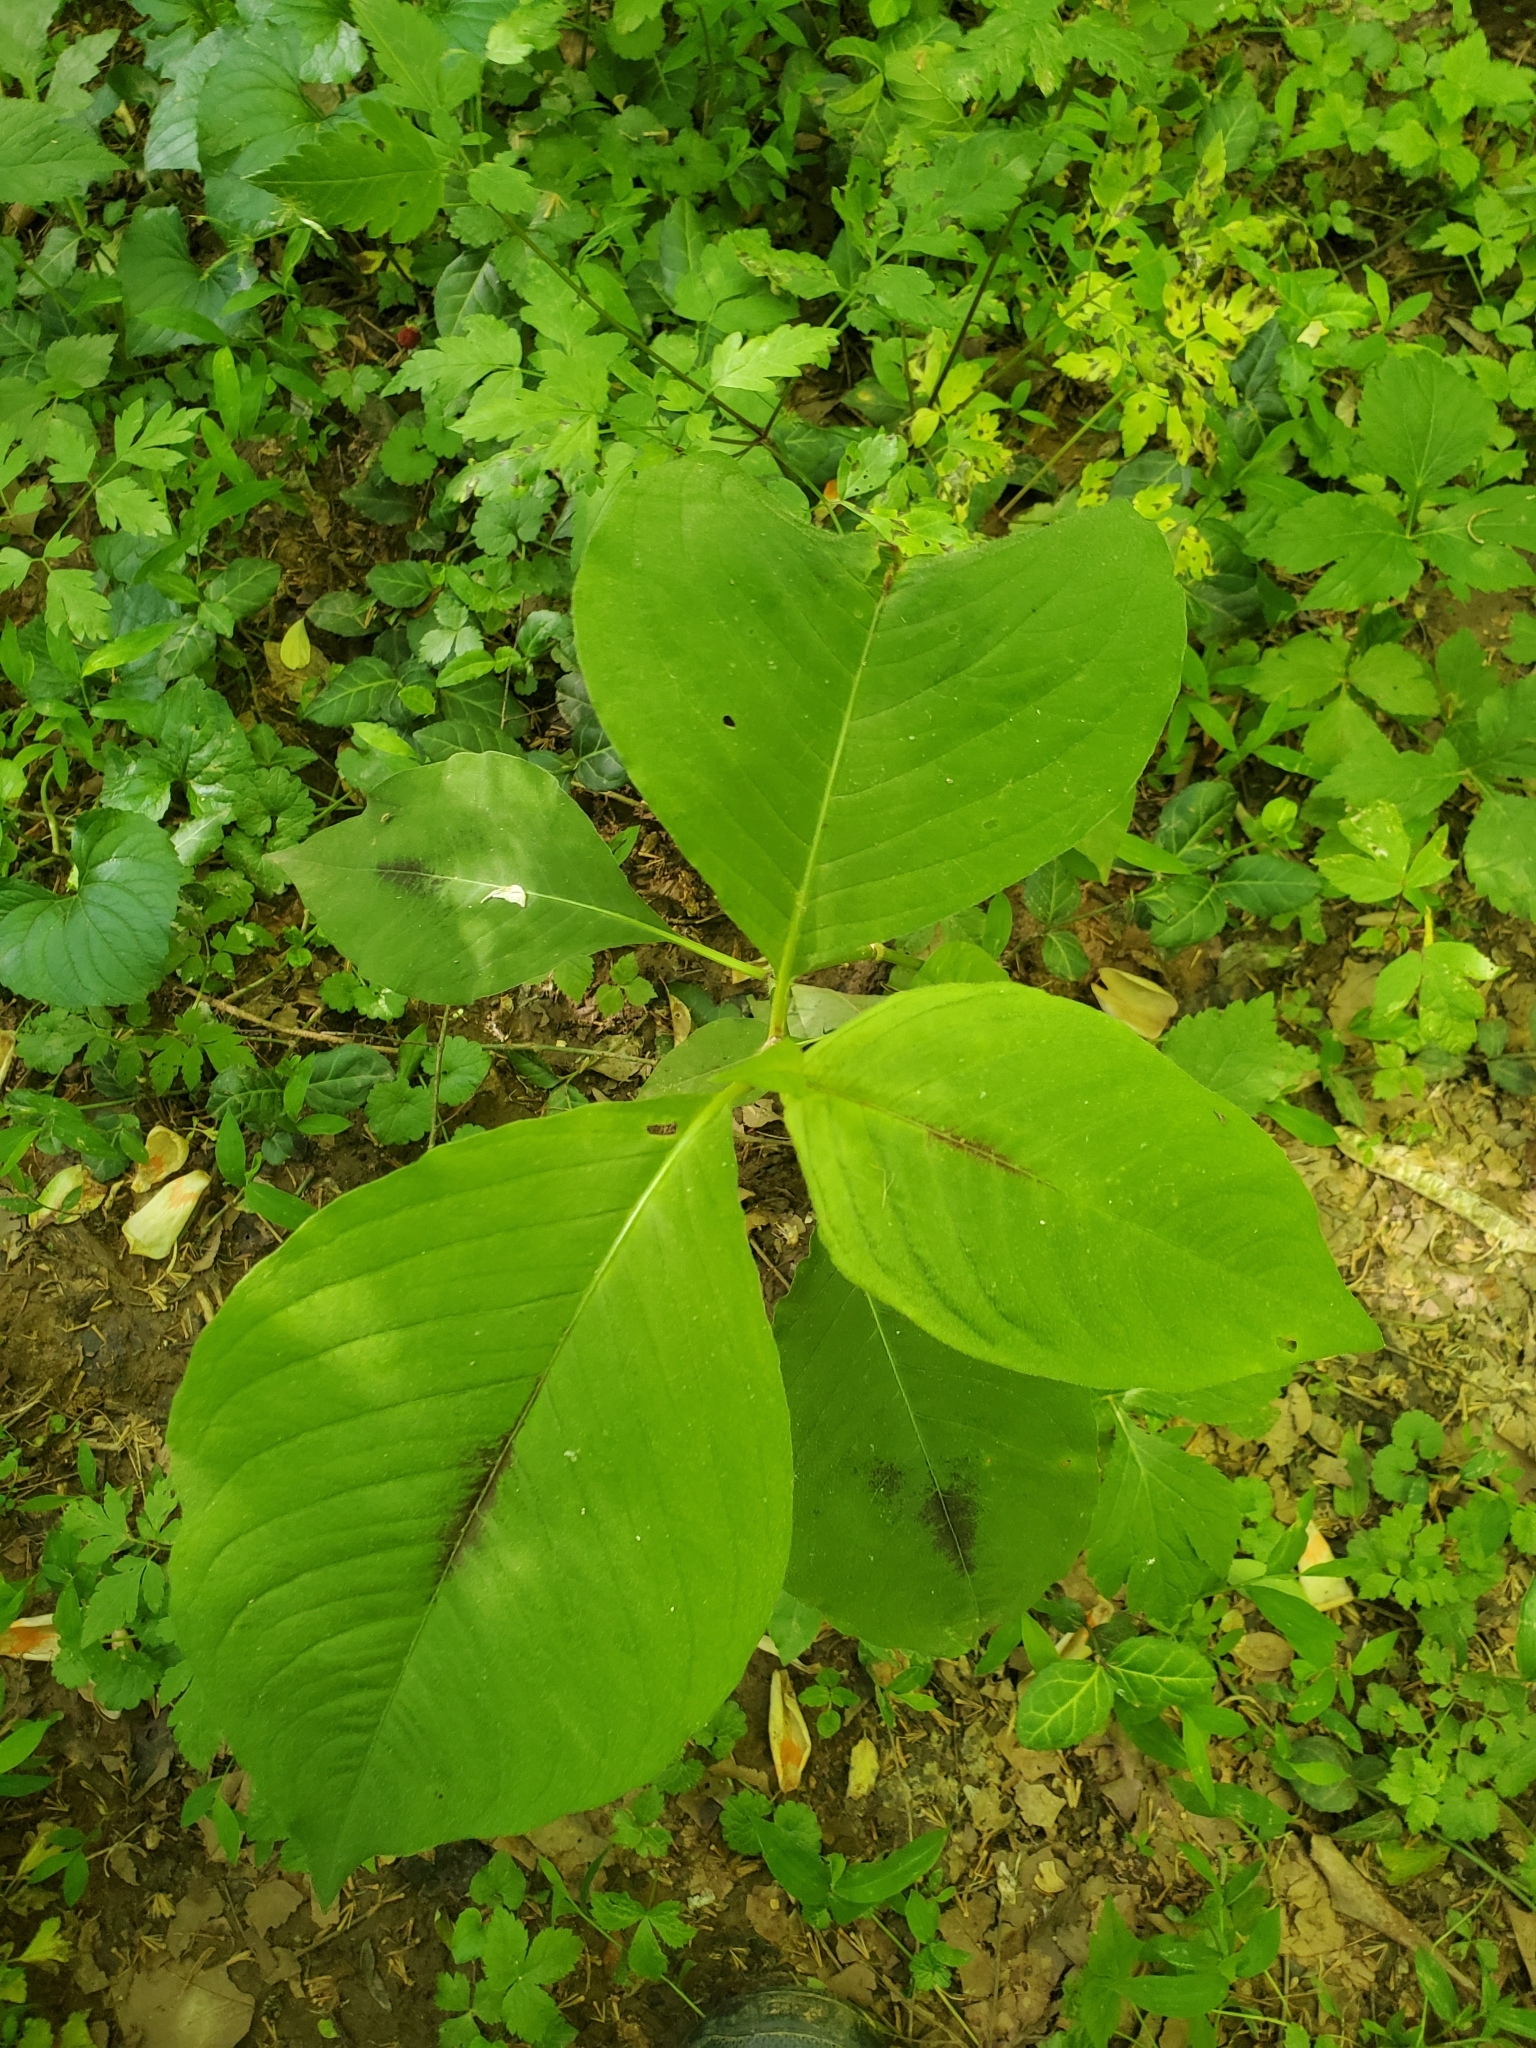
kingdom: Plantae
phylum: Tracheophyta
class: Magnoliopsida
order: Caryophyllales
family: Polygonaceae
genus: Persicaria
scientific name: Persicaria virginiana
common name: Jumpseed
